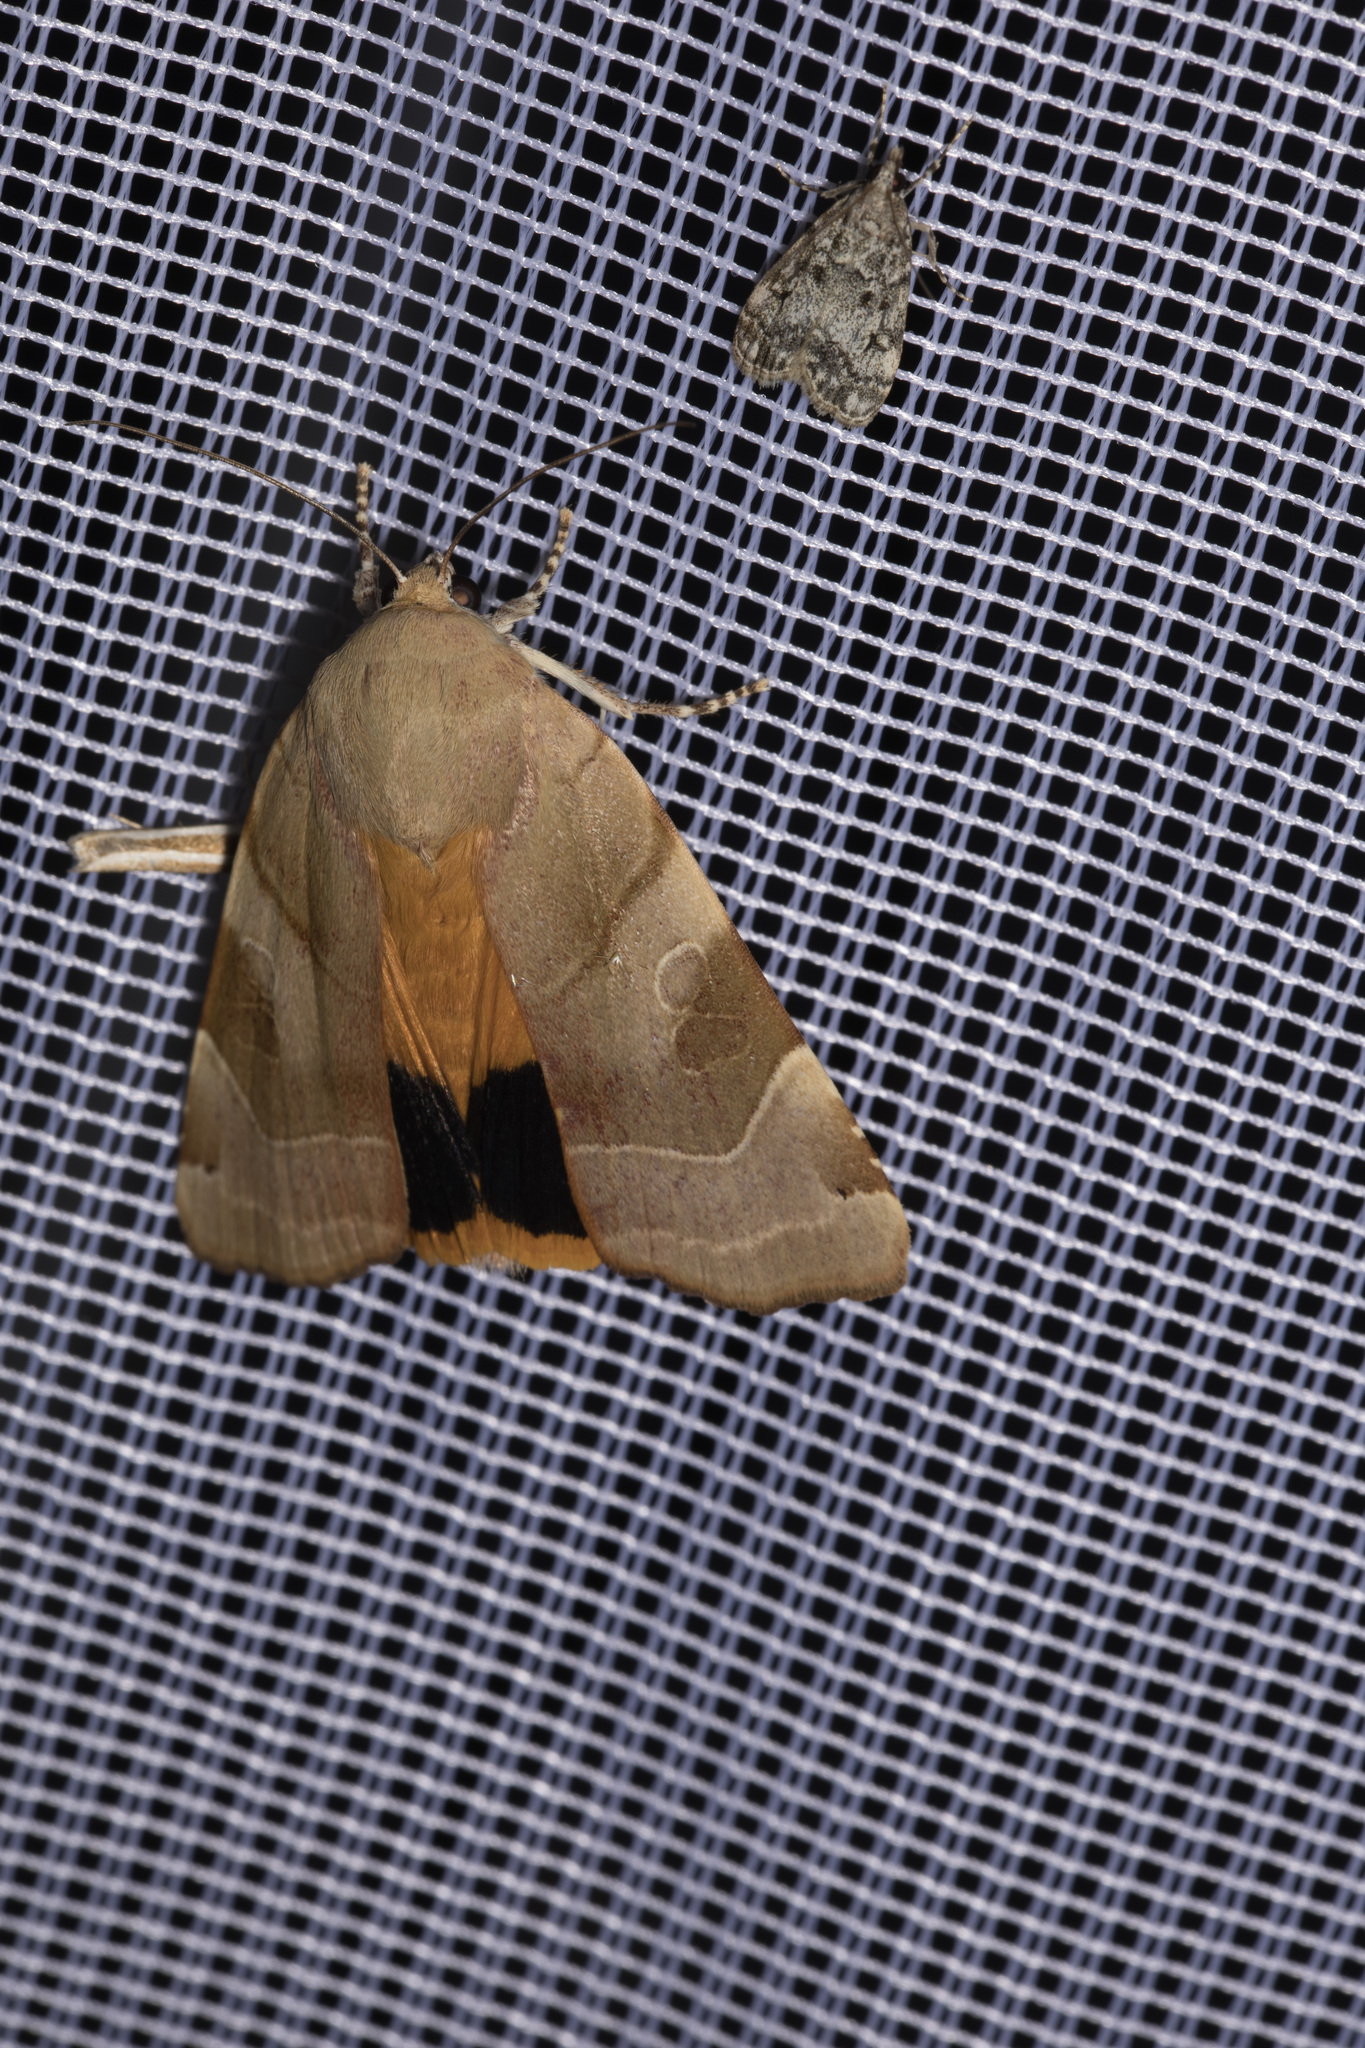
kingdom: Animalia
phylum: Arthropoda
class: Insecta
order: Lepidoptera
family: Noctuidae
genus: Noctua
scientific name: Noctua fimbriata
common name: Broad-bordered yellow underwing
